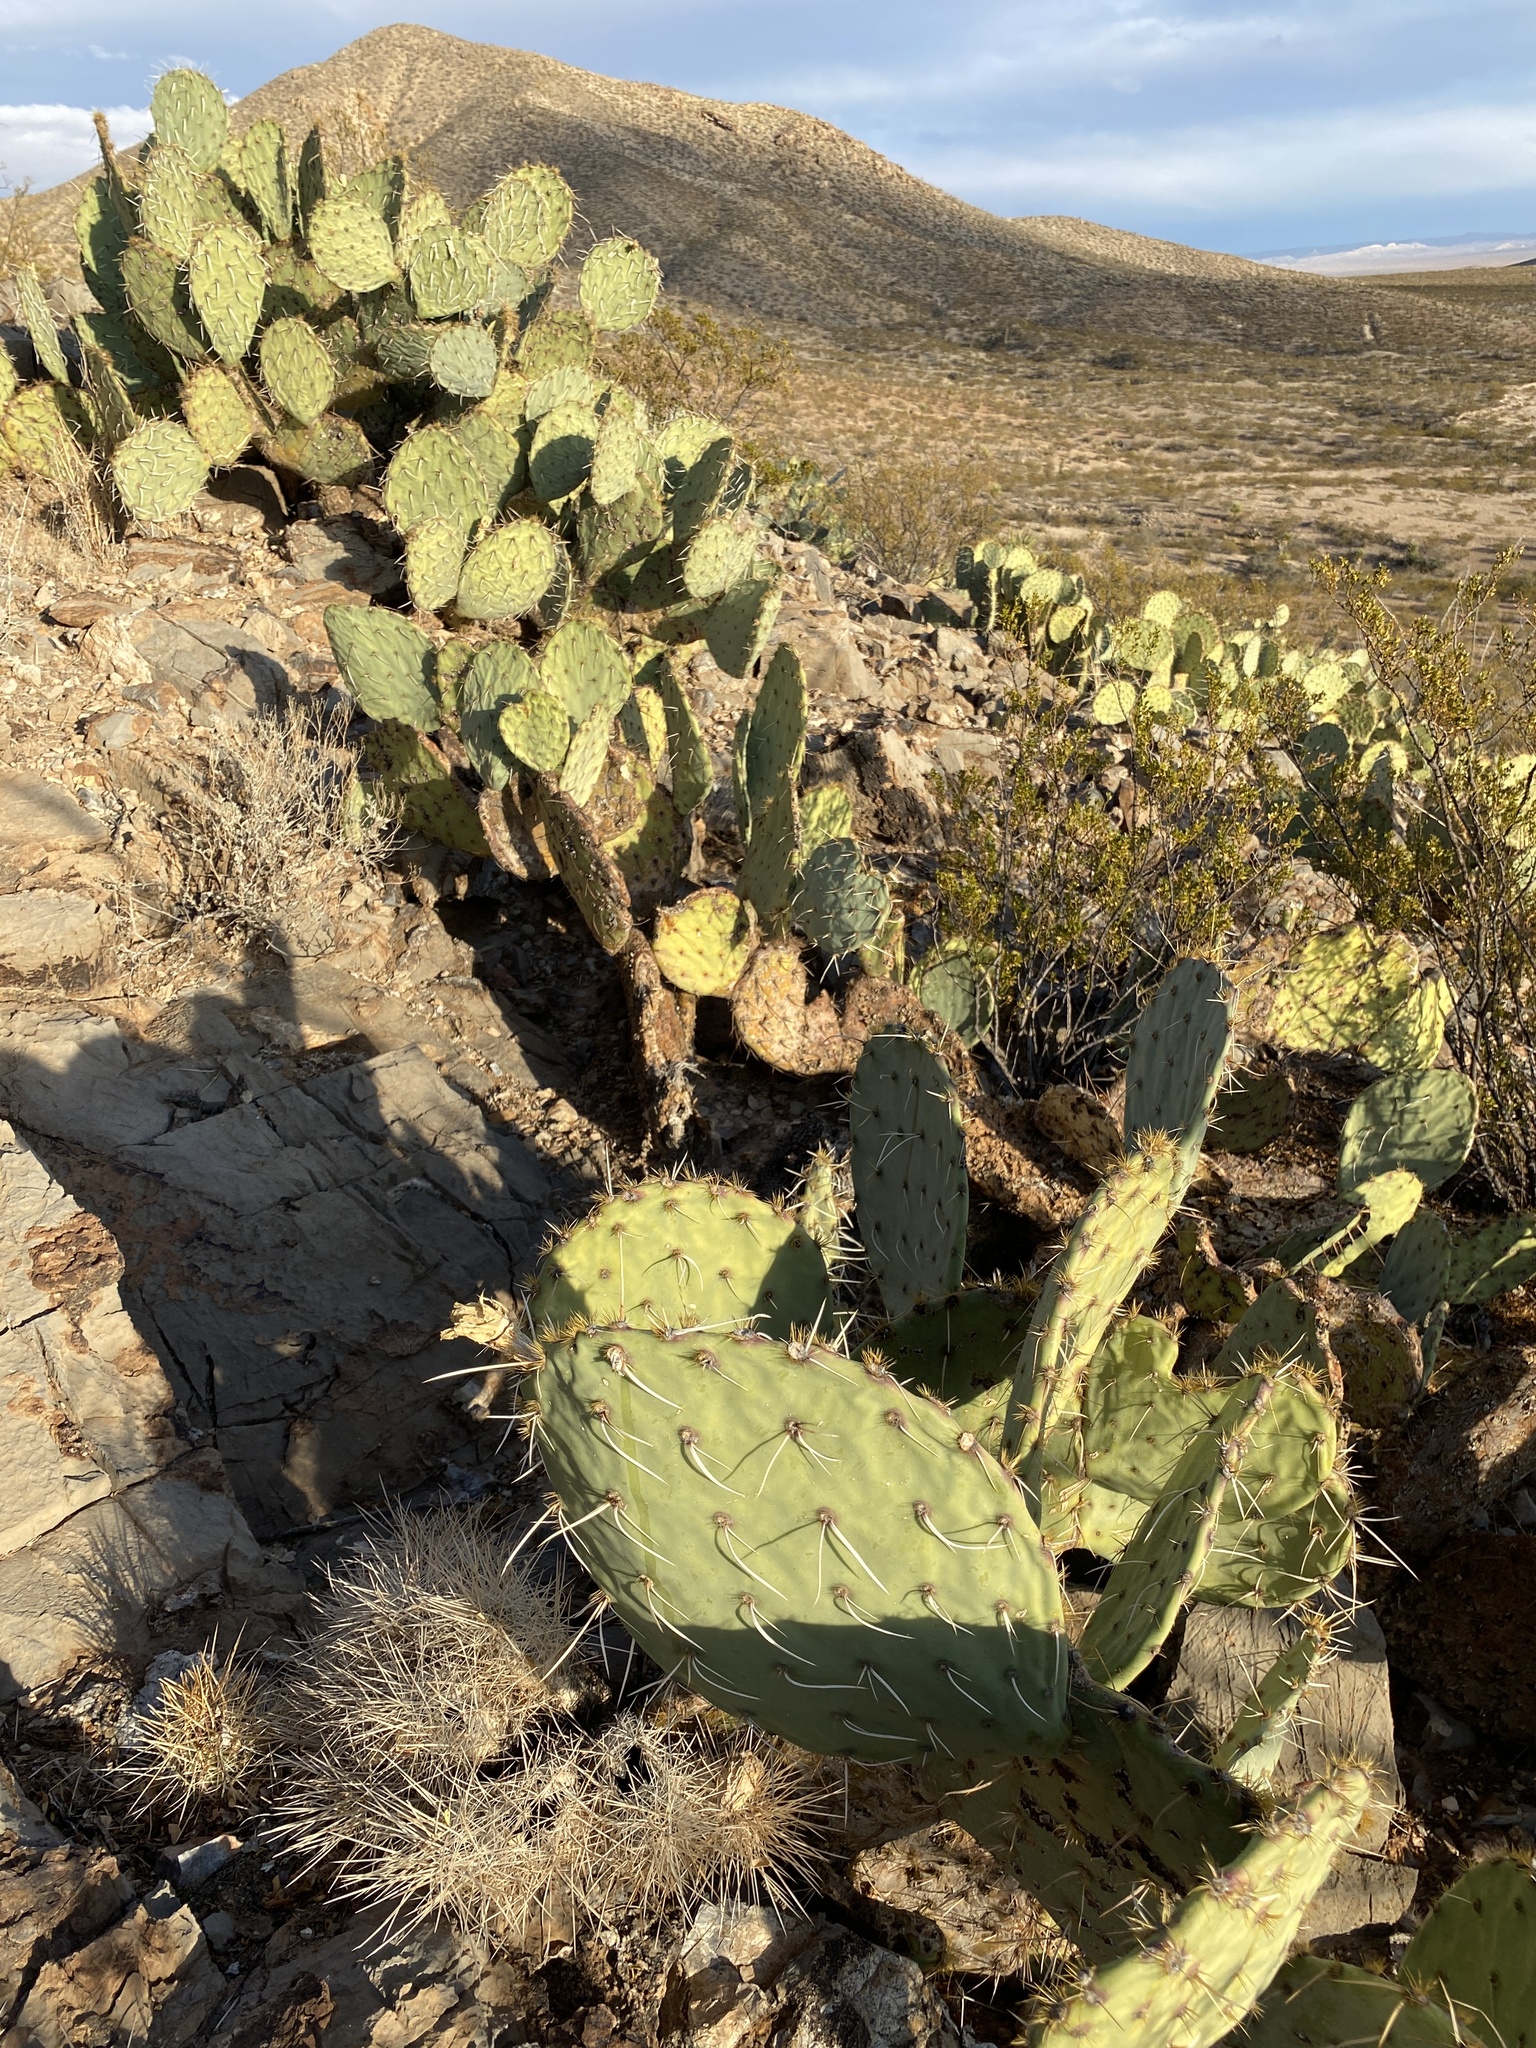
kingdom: Plantae
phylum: Tracheophyta
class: Magnoliopsida
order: Caryophyllales
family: Cactaceae
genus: Opuntia
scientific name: Opuntia engelmannii
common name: Cactus-apple
